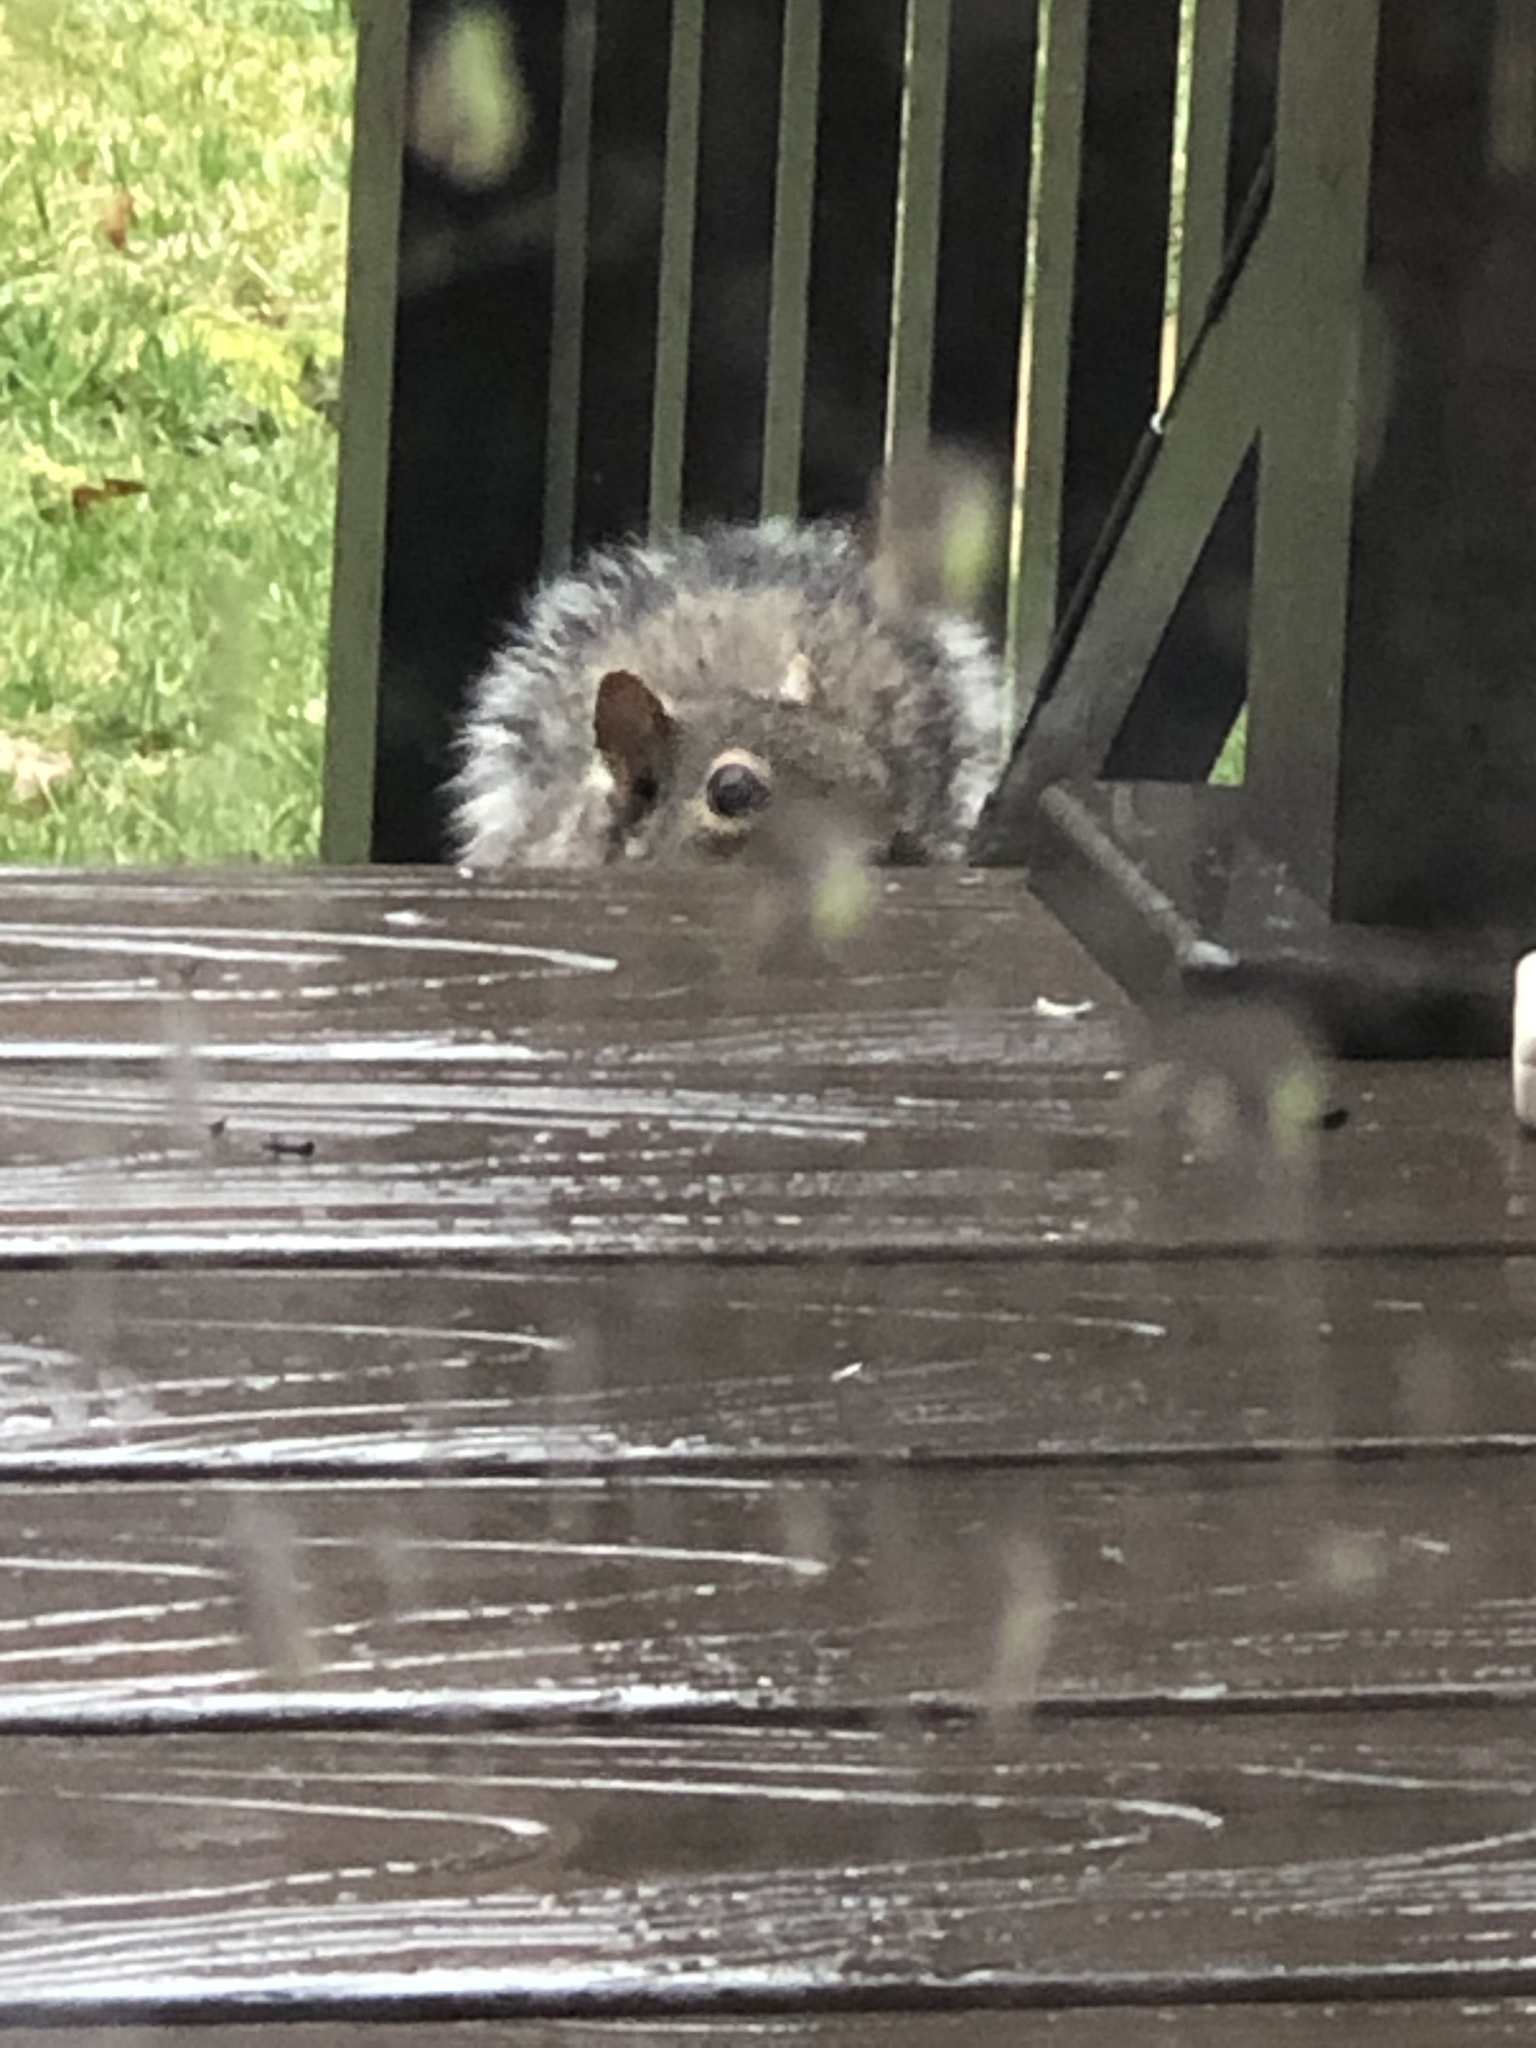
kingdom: Animalia
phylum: Chordata
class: Mammalia
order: Rodentia
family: Sciuridae
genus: Sciurus
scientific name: Sciurus carolinensis
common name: Eastern gray squirrel
